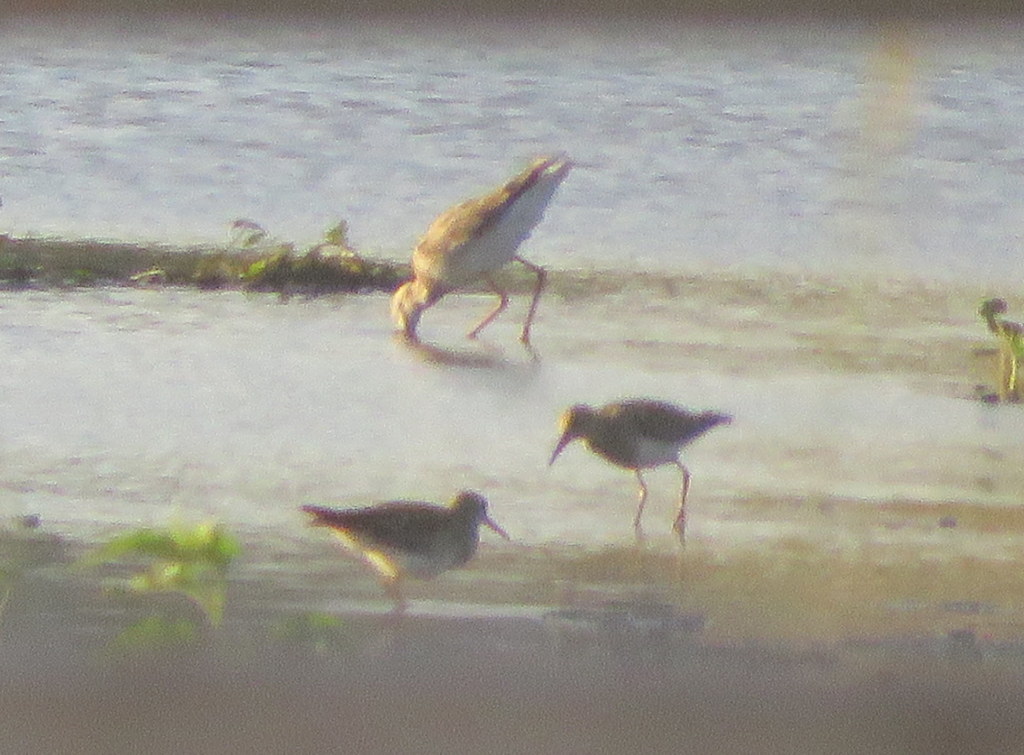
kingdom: Animalia
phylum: Chordata
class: Aves
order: Charadriiformes
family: Scolopacidae
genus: Calidris
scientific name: Calidris melanotos
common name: Pectoral sandpiper
